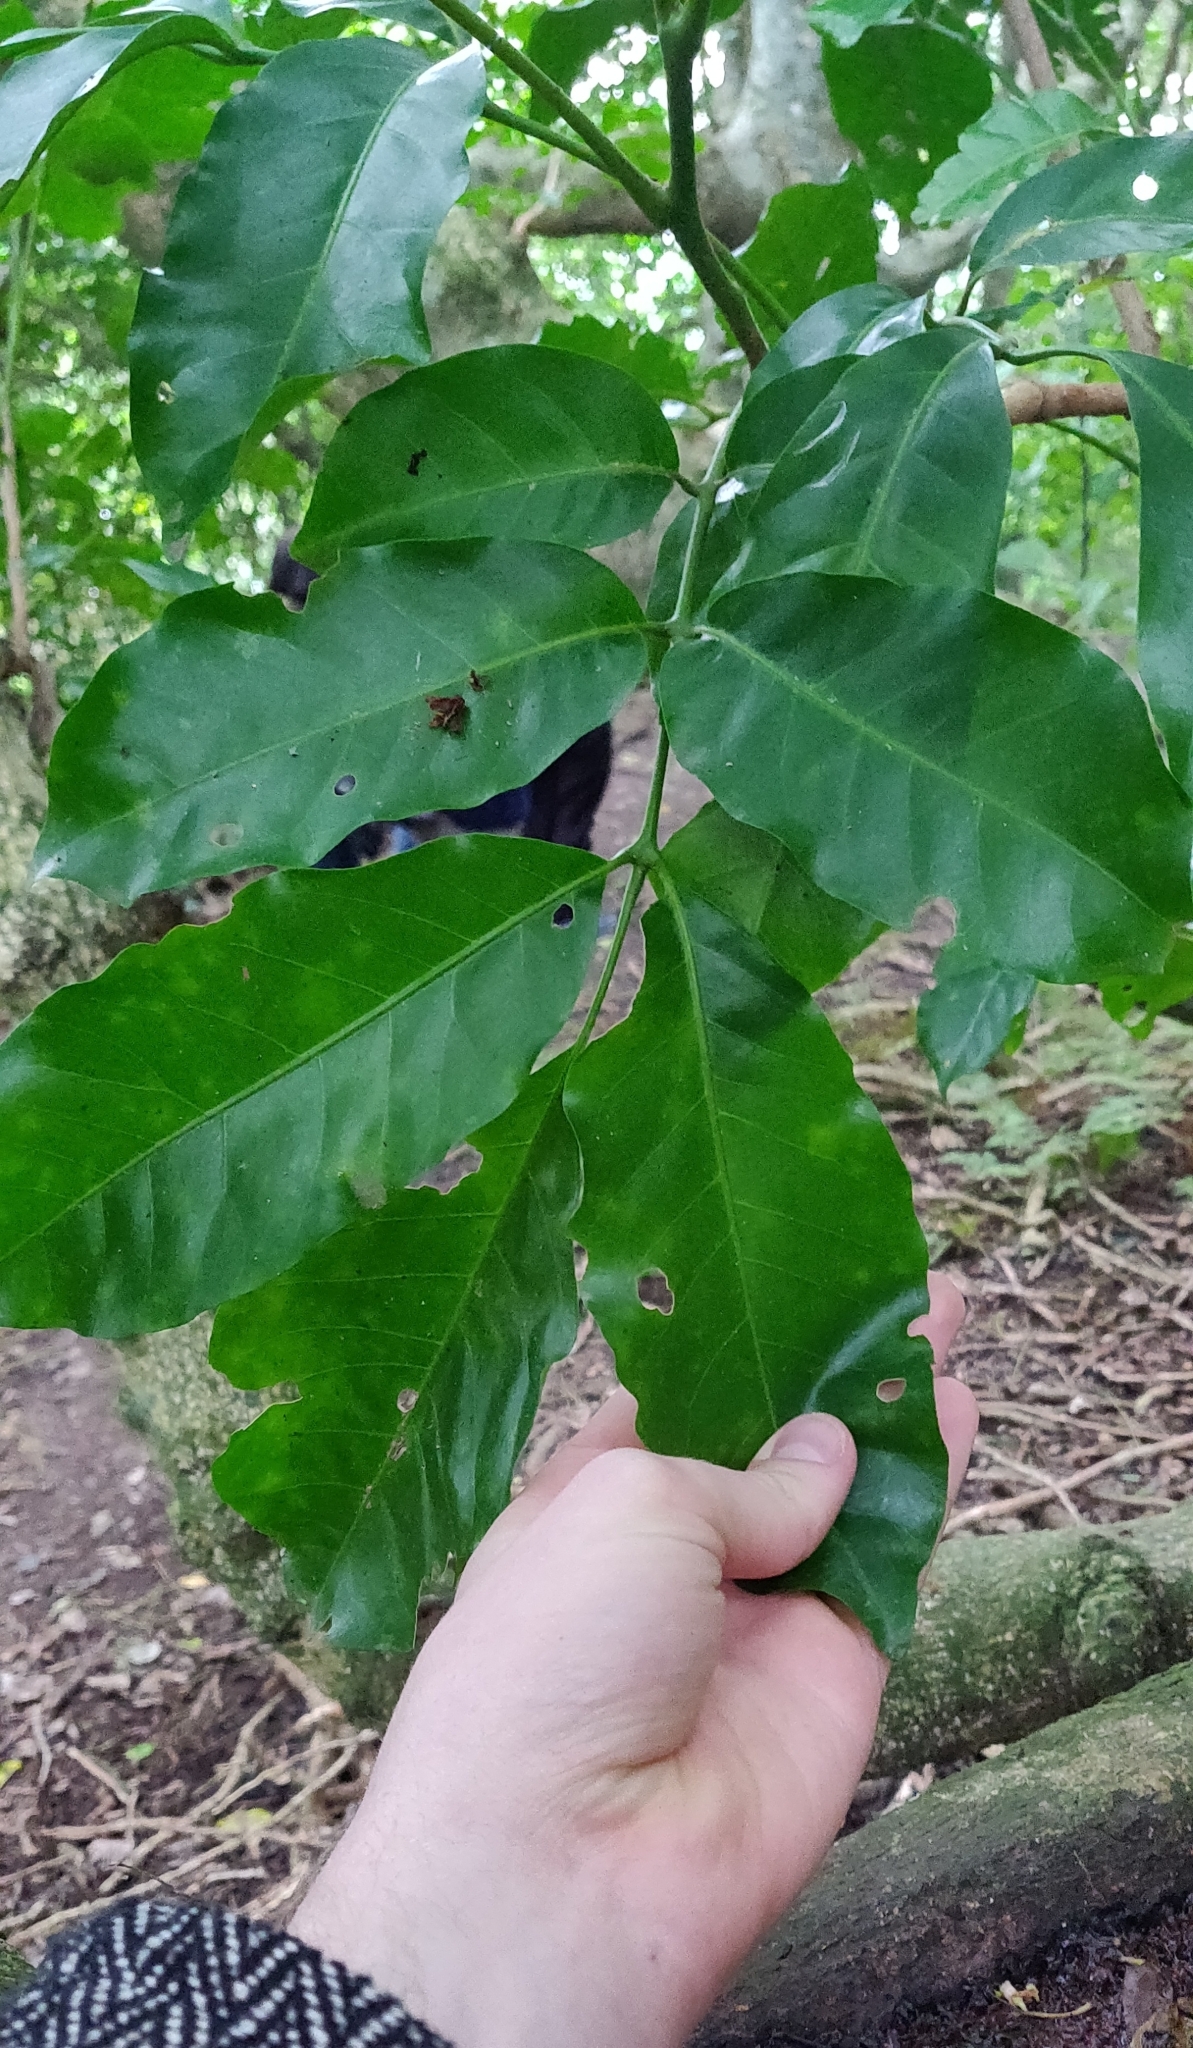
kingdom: Plantae
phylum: Tracheophyta
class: Magnoliopsida
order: Sapindales
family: Meliaceae
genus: Didymocheton
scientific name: Didymocheton spectabilis
